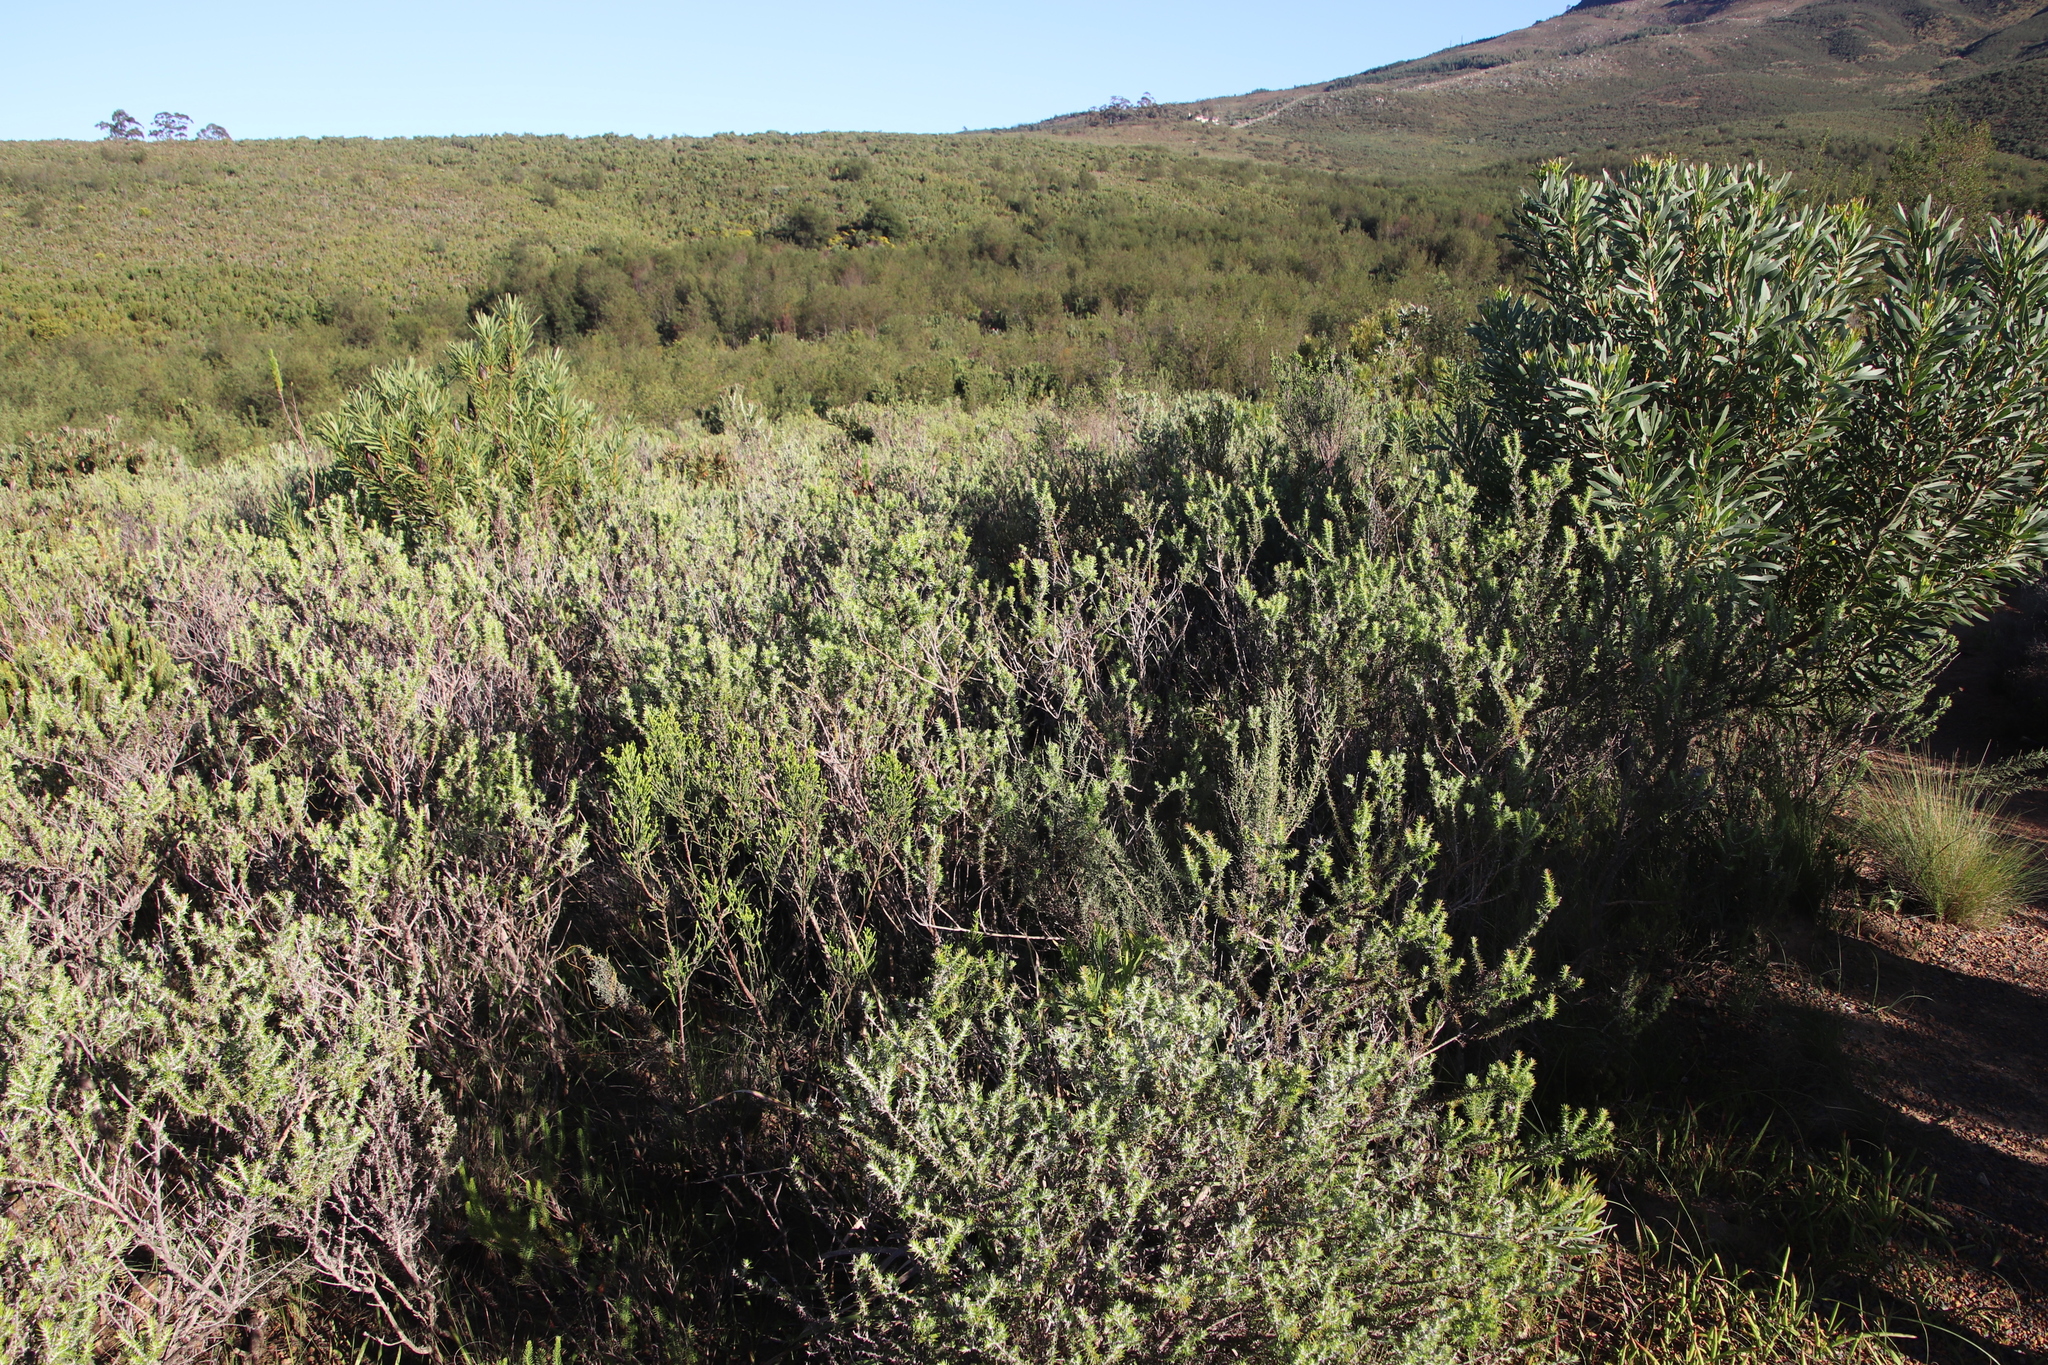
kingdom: Plantae
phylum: Tracheophyta
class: Magnoliopsida
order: Asterales
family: Asteraceae
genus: Metalasia
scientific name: Metalasia densa
